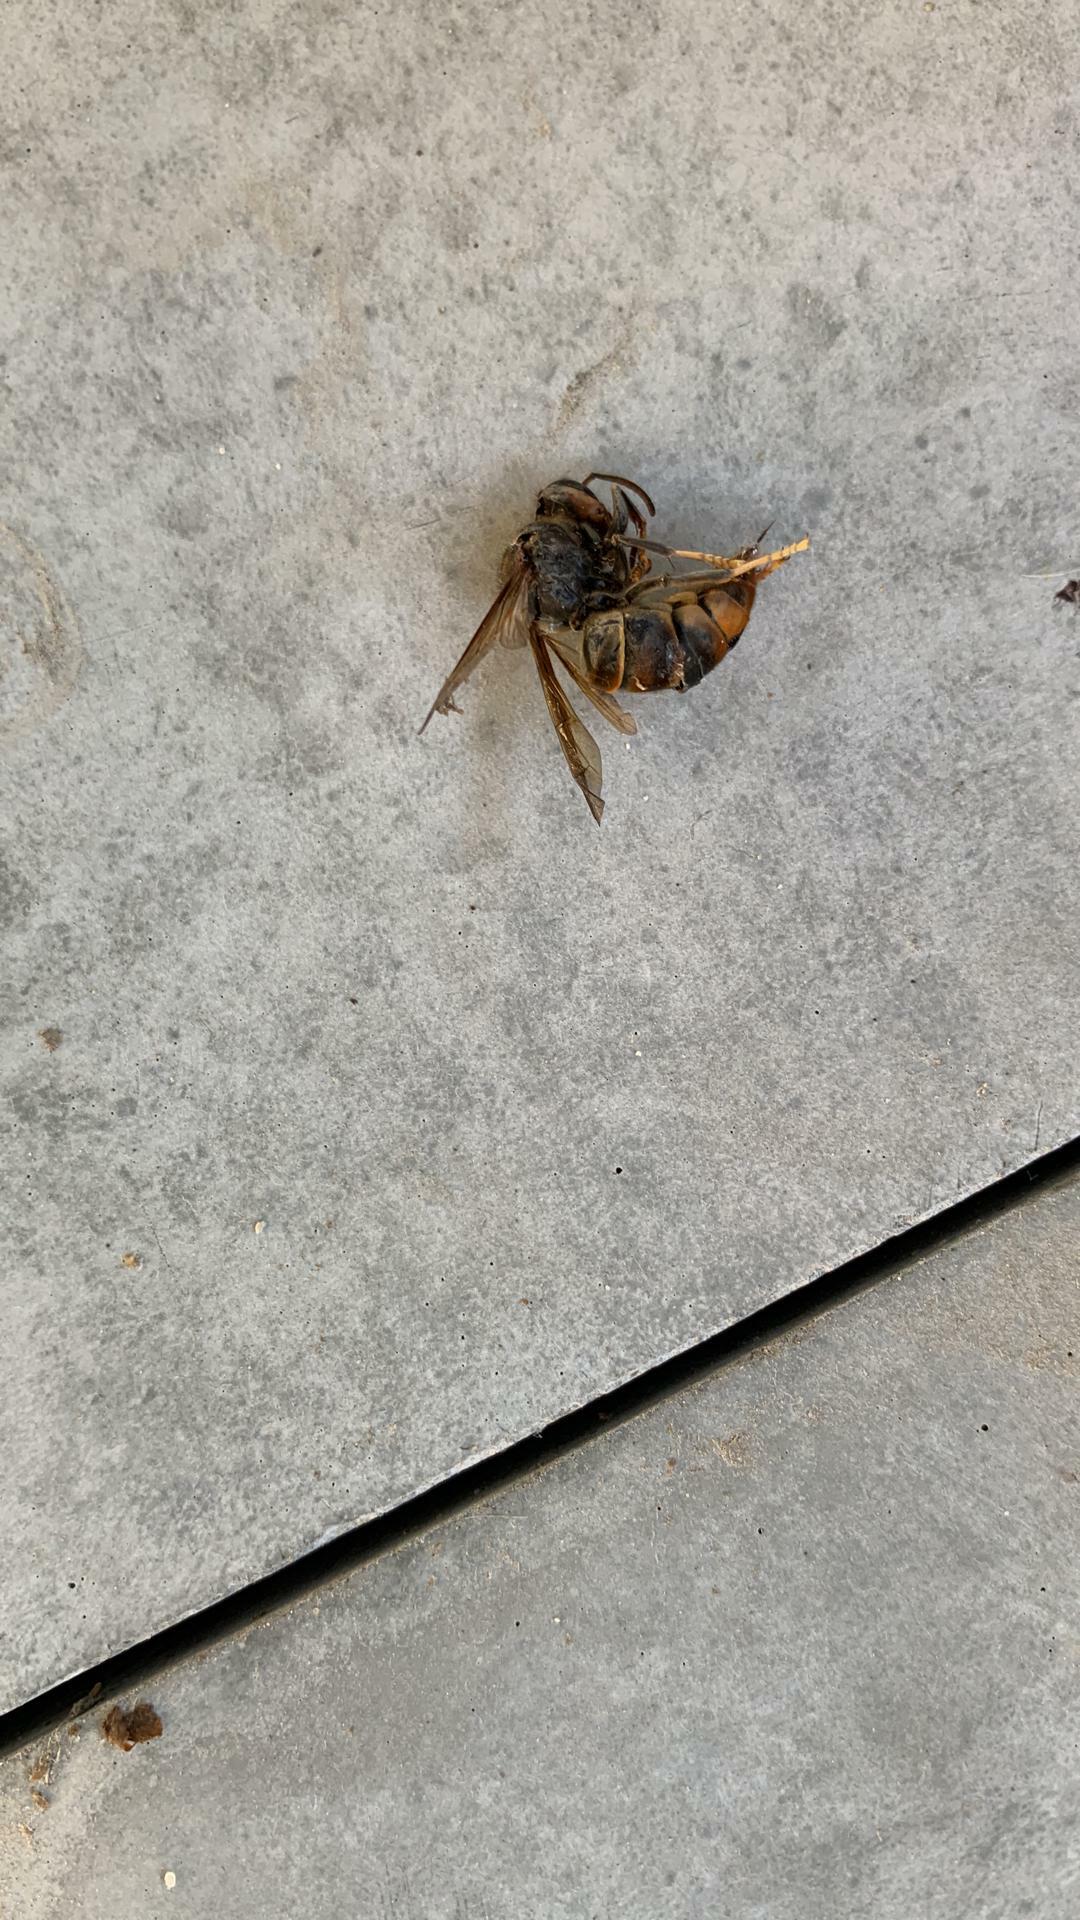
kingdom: Animalia
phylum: Arthropoda
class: Insecta
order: Hymenoptera
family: Vespidae
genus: Vespa
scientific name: Vespa velutina
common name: Asian hornet
